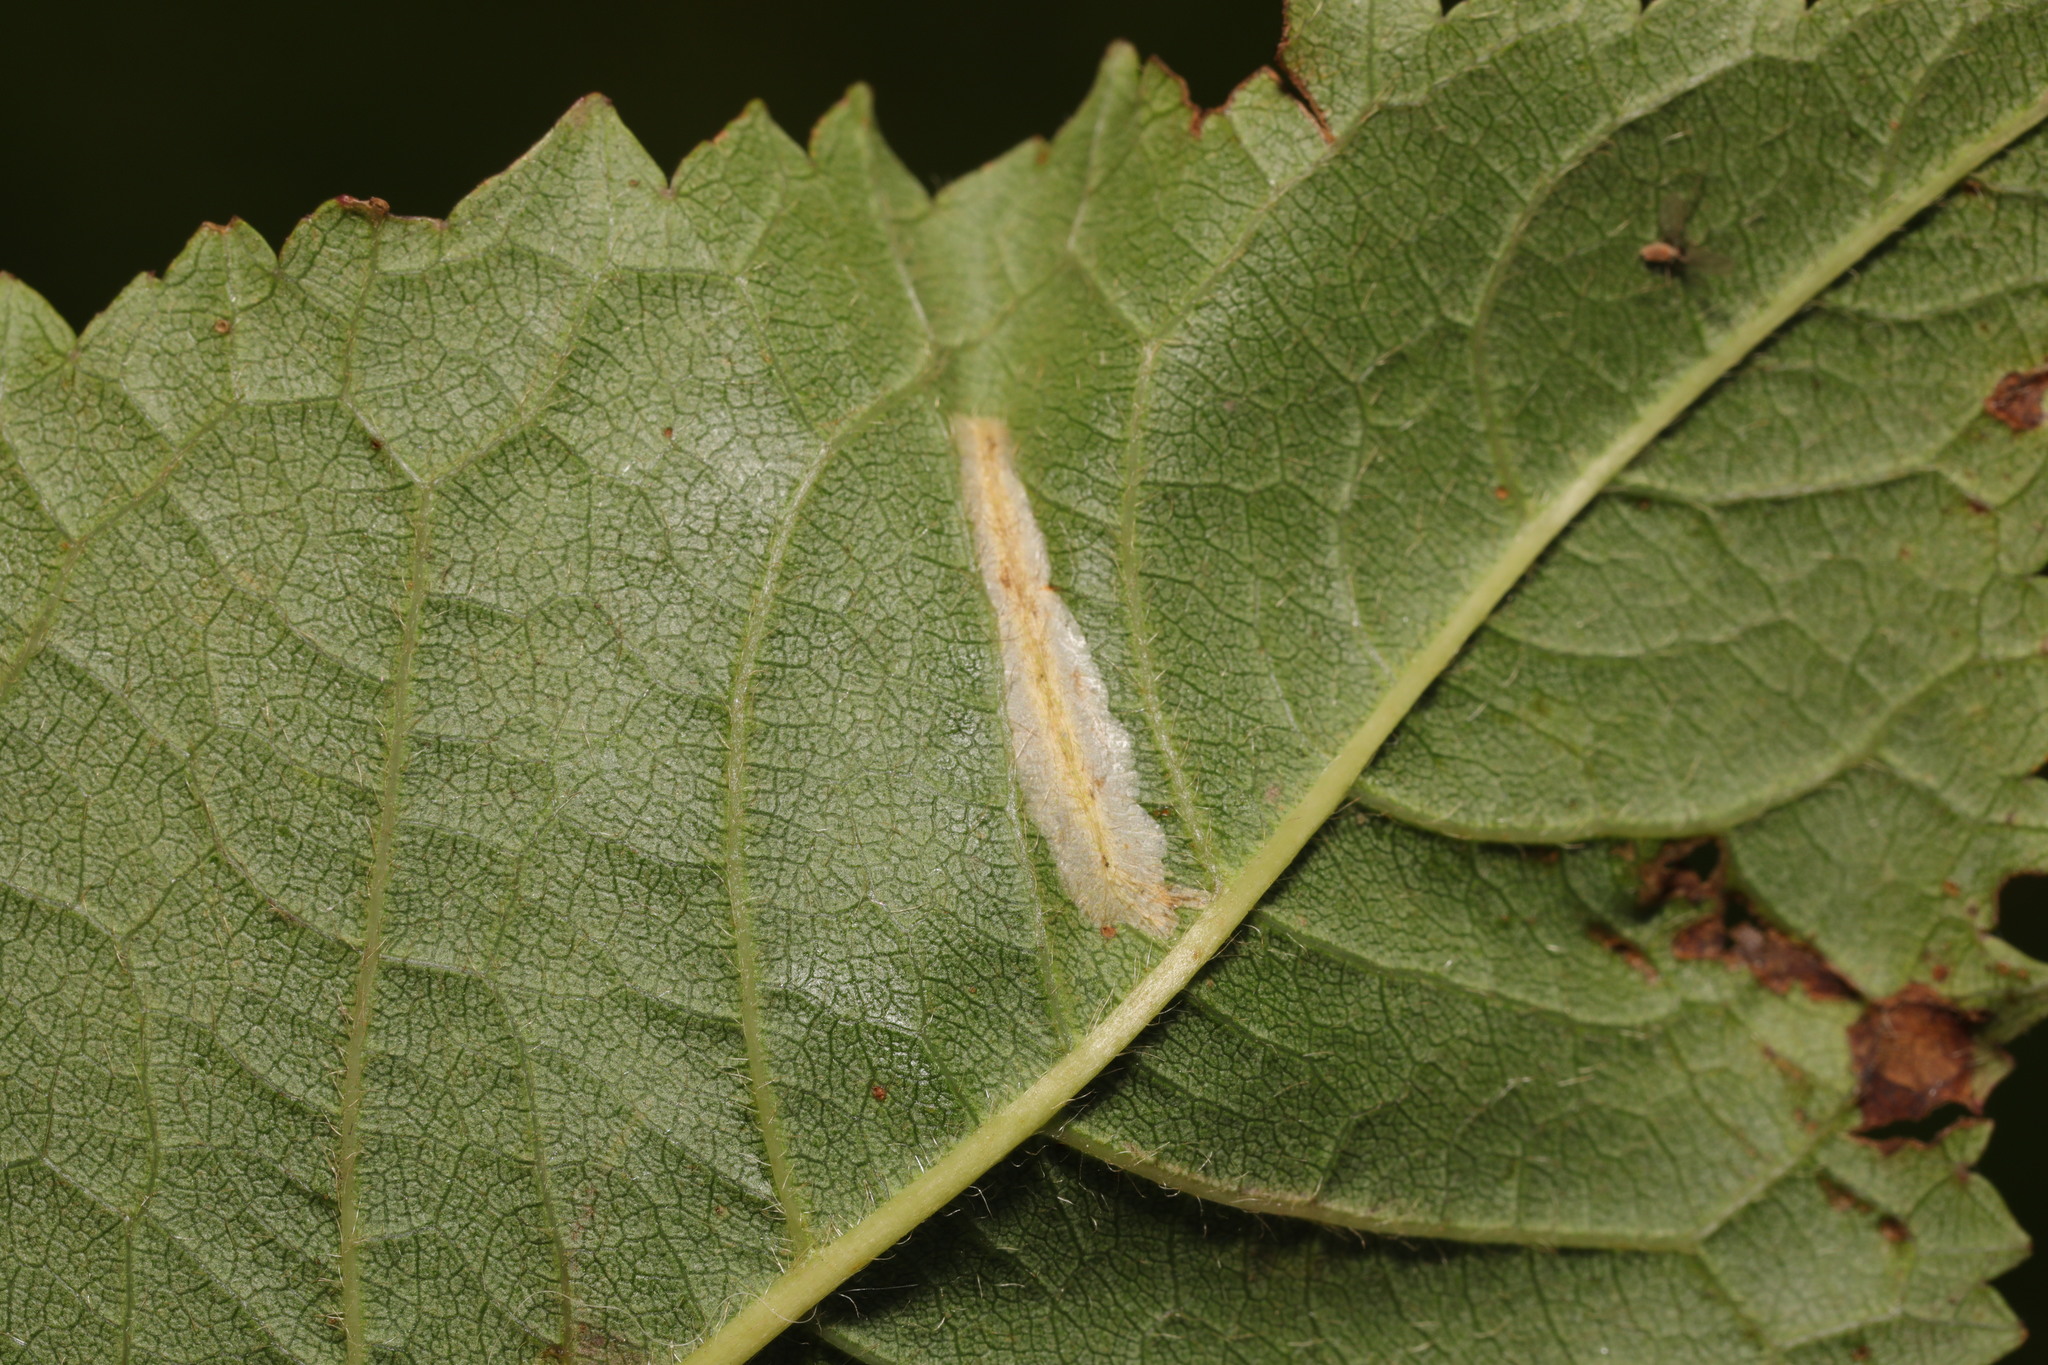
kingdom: Animalia
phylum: Arthropoda
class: Insecta
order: Lepidoptera
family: Gracillariidae
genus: Phyllonorycter
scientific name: Phyllonorycter cerasicolella
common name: Cherry midget
